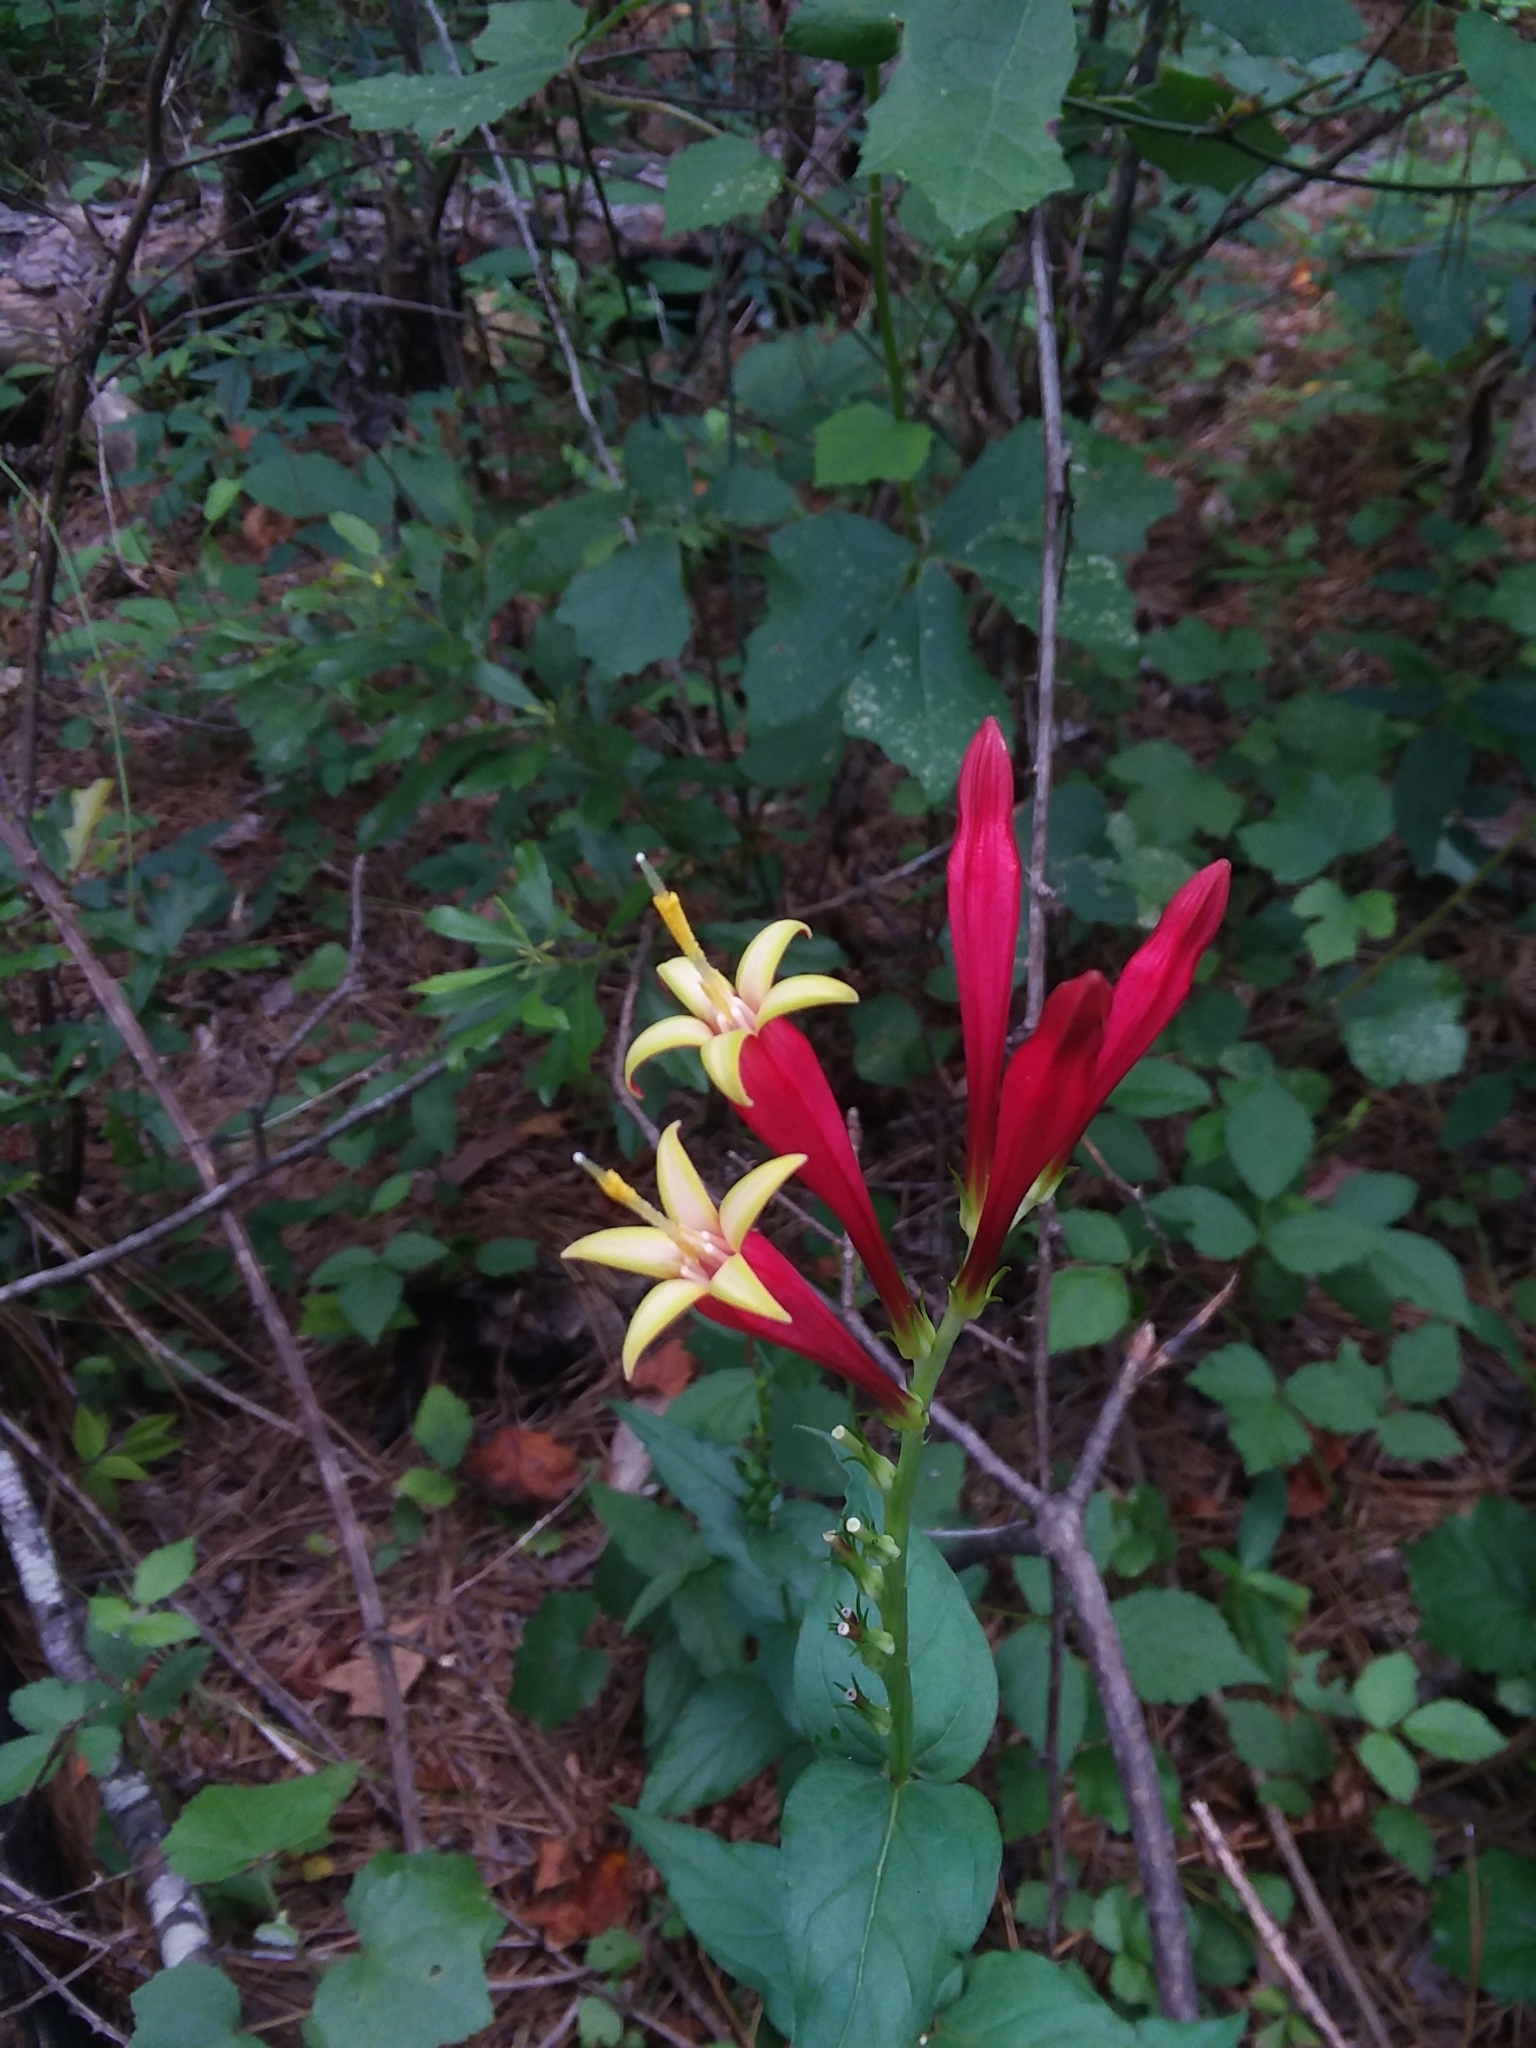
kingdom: Plantae
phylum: Tracheophyta
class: Magnoliopsida
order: Gentianales
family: Loganiaceae
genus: Spigelia
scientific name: Spigelia marilandica
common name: Indian-pink
